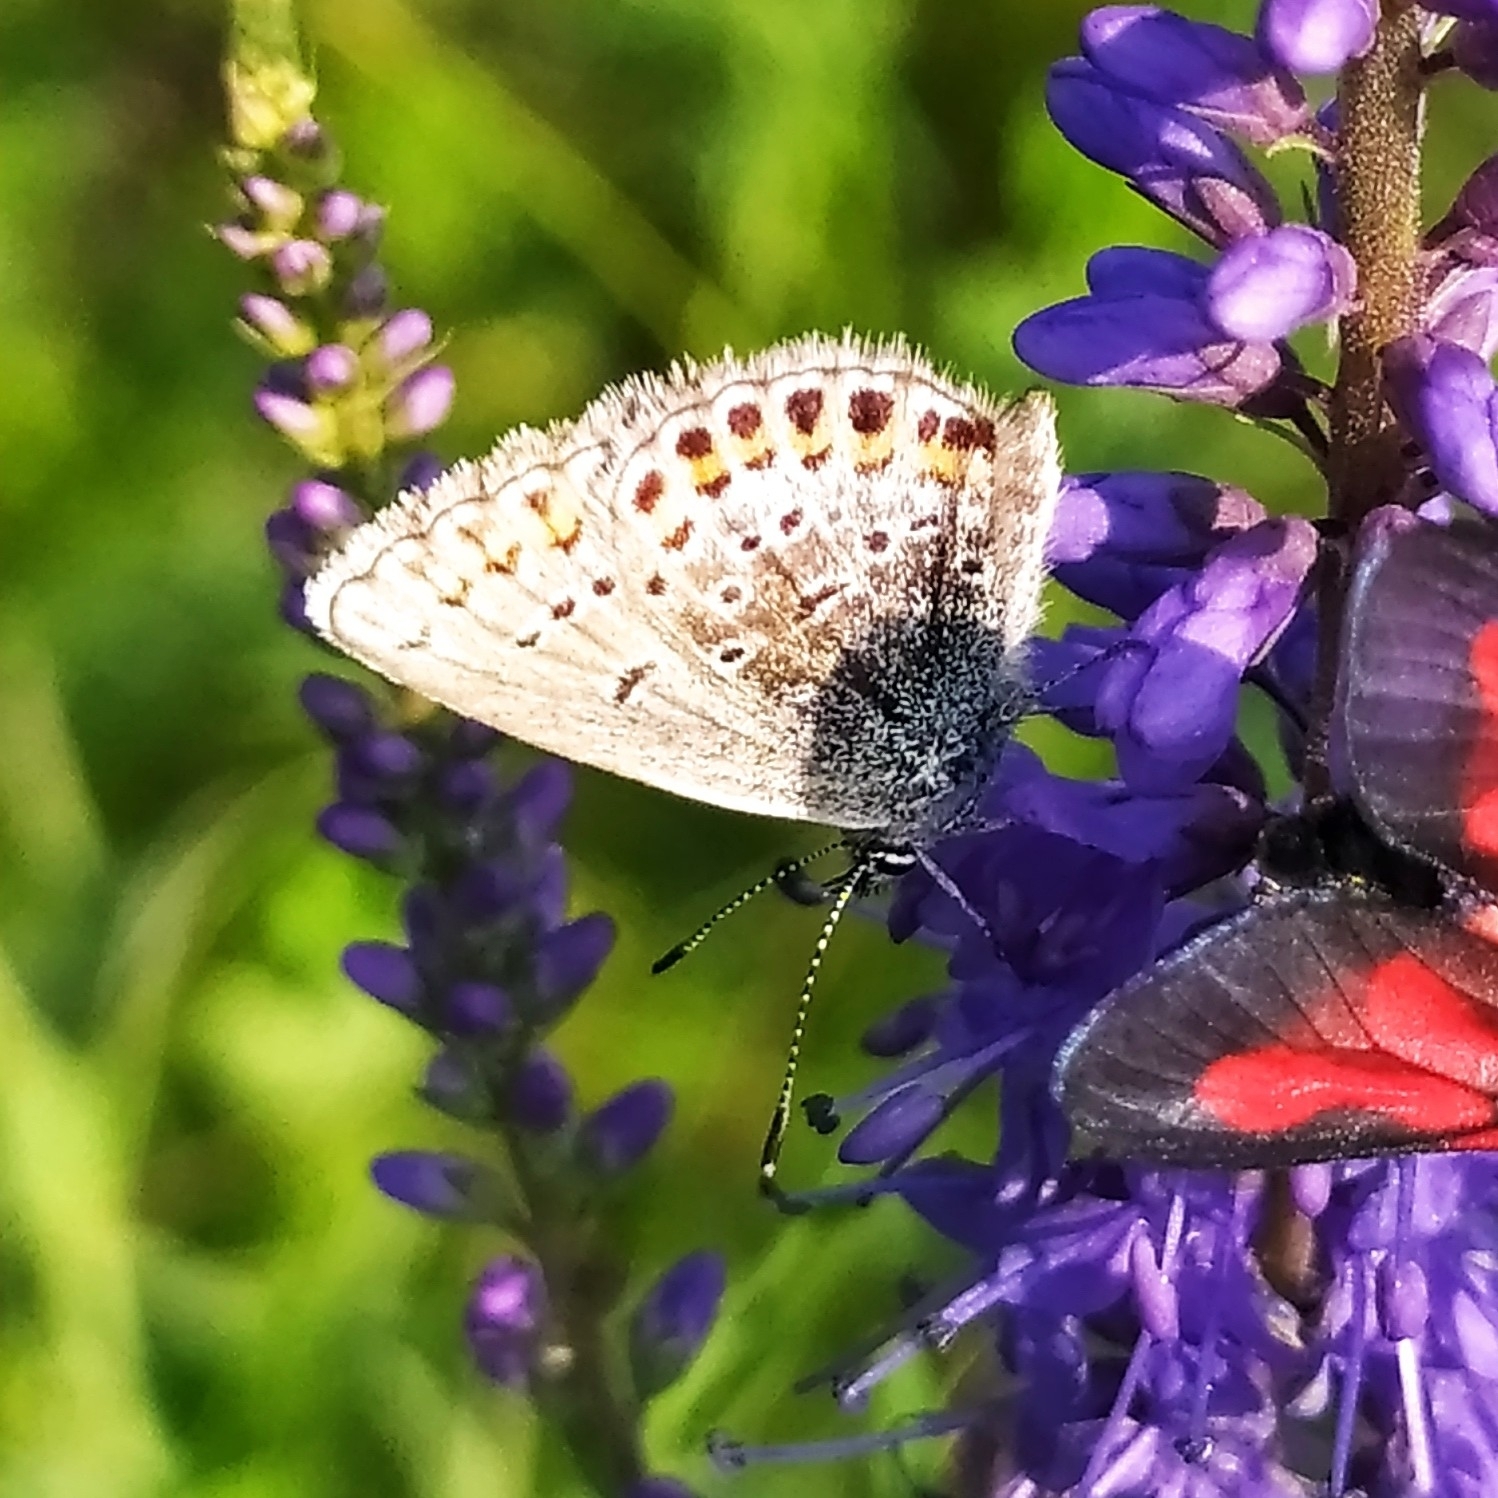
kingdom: Animalia
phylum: Arthropoda
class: Insecta
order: Lepidoptera
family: Lycaenidae
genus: Plebejus
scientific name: Plebejus argus
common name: Silver-studded blue
